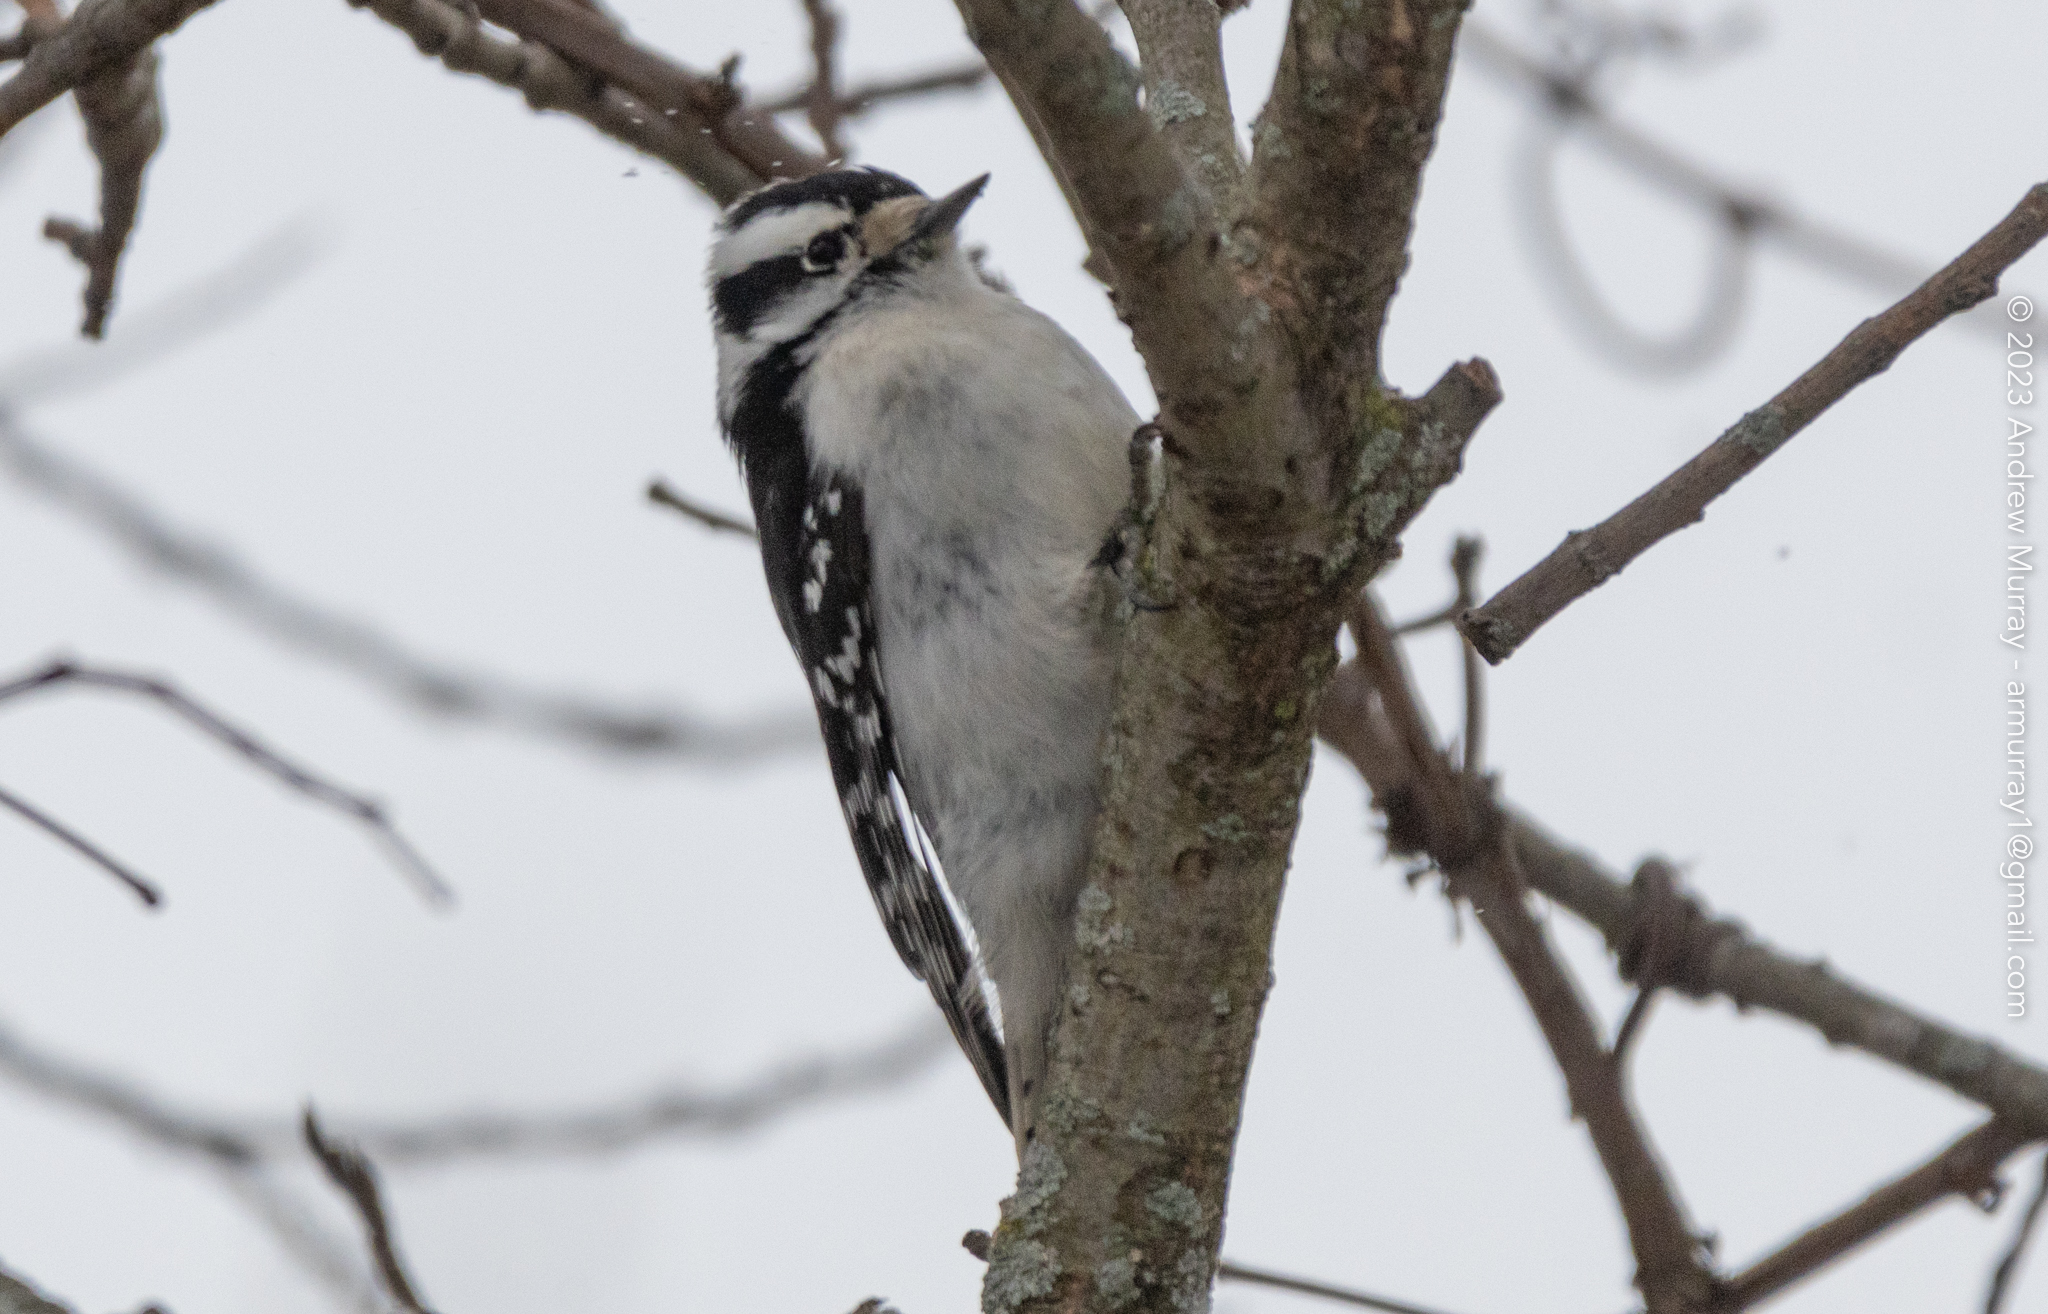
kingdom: Animalia
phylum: Chordata
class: Aves
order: Piciformes
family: Picidae
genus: Dryobates
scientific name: Dryobates pubescens
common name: Downy woodpecker
